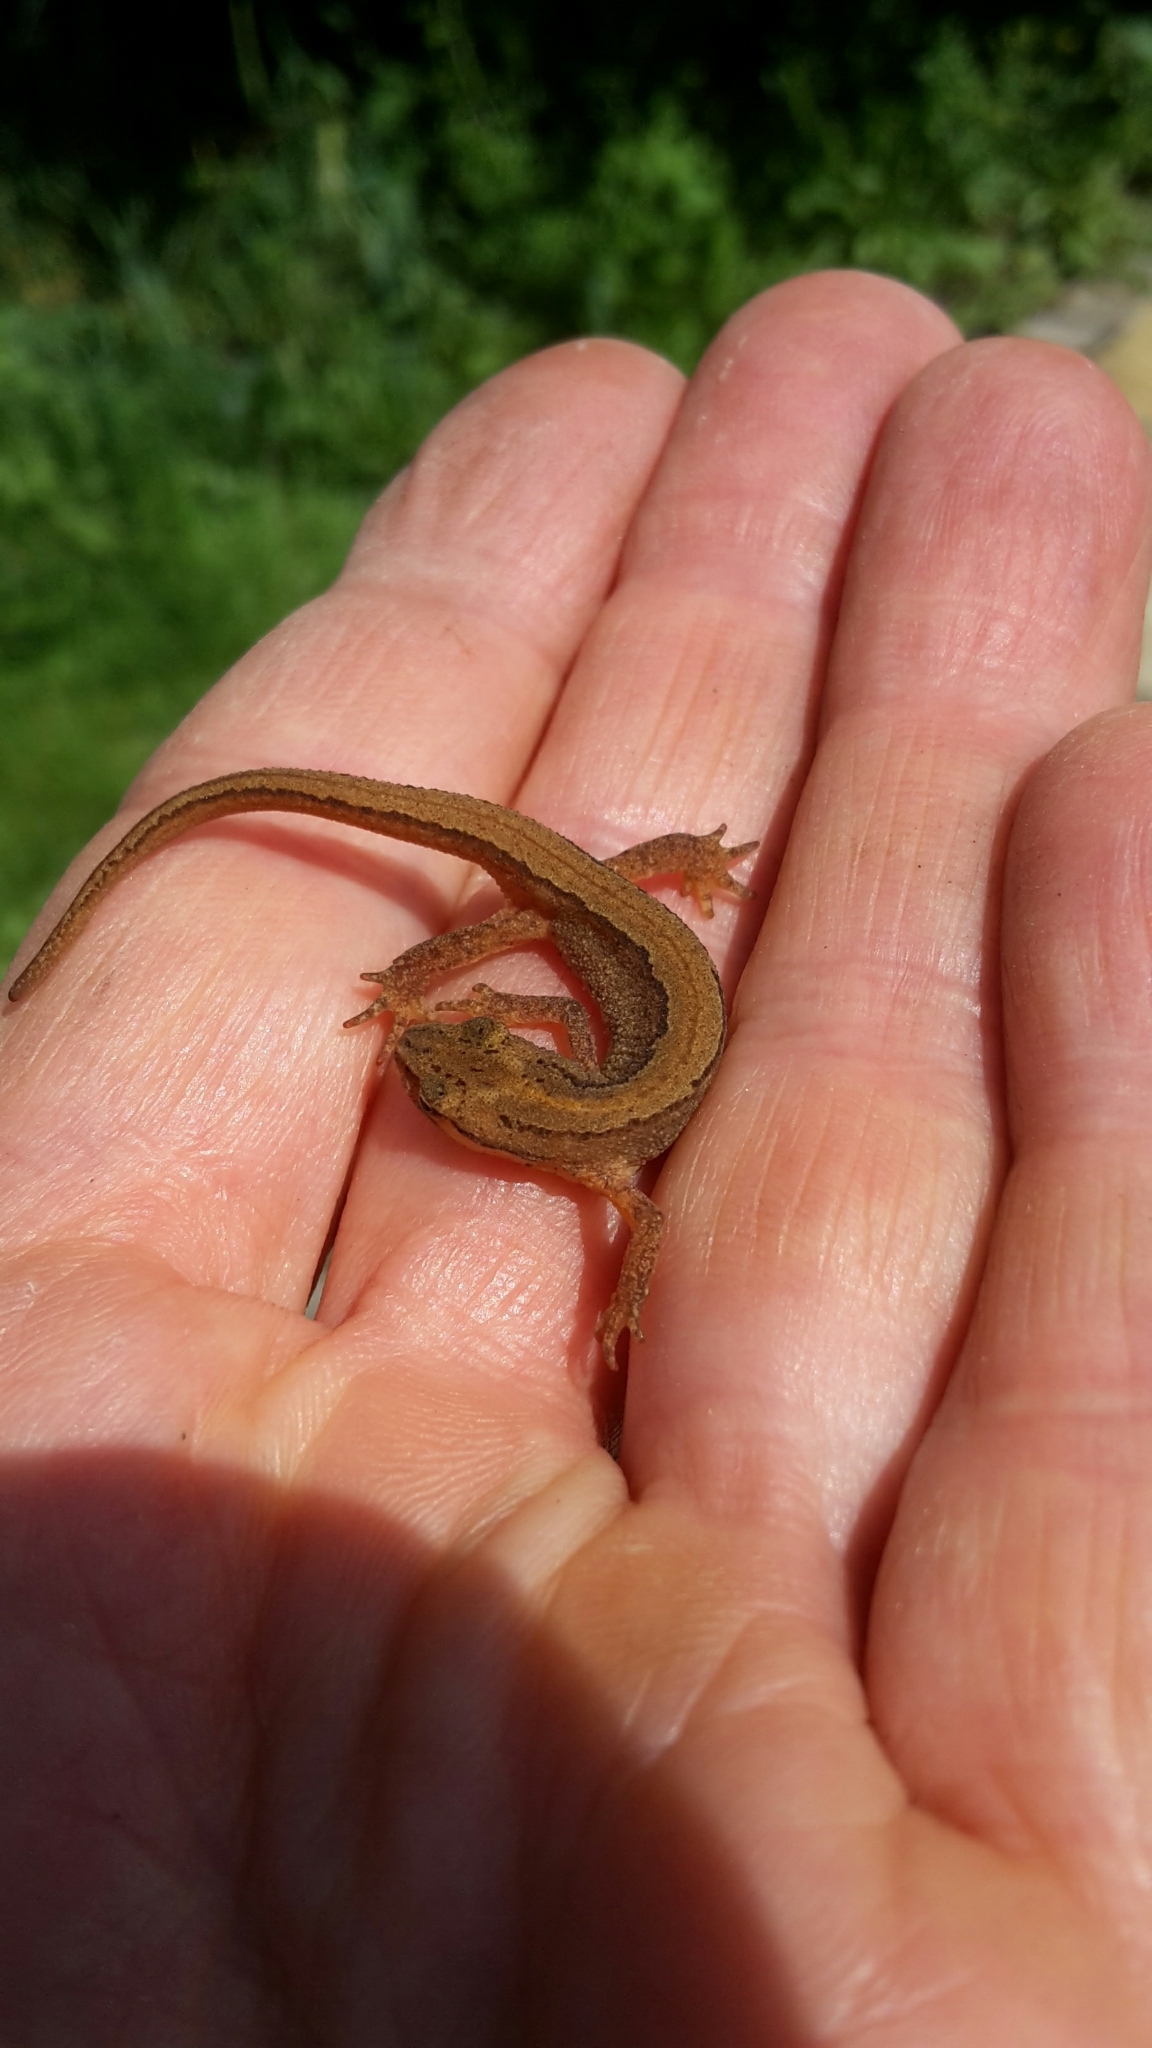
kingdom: Animalia
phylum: Chordata
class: Amphibia
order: Caudata
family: Salamandridae
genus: Lissotriton
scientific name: Lissotriton vulgaris
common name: Smooth newt
